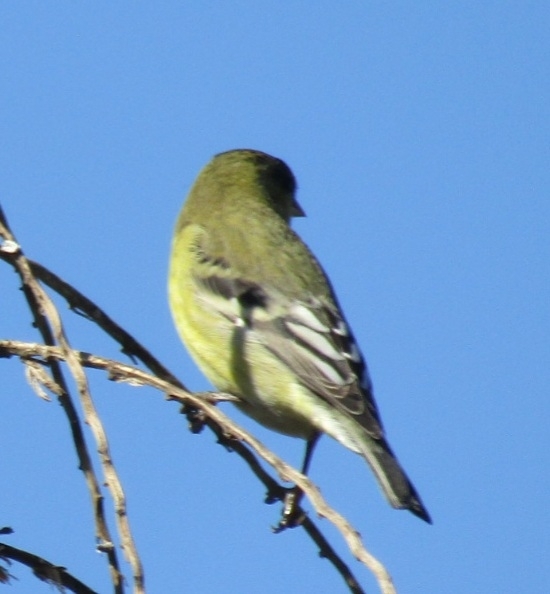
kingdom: Animalia
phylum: Chordata
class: Aves
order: Passeriformes
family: Fringillidae
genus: Spinus
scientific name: Spinus psaltria
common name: Lesser goldfinch
